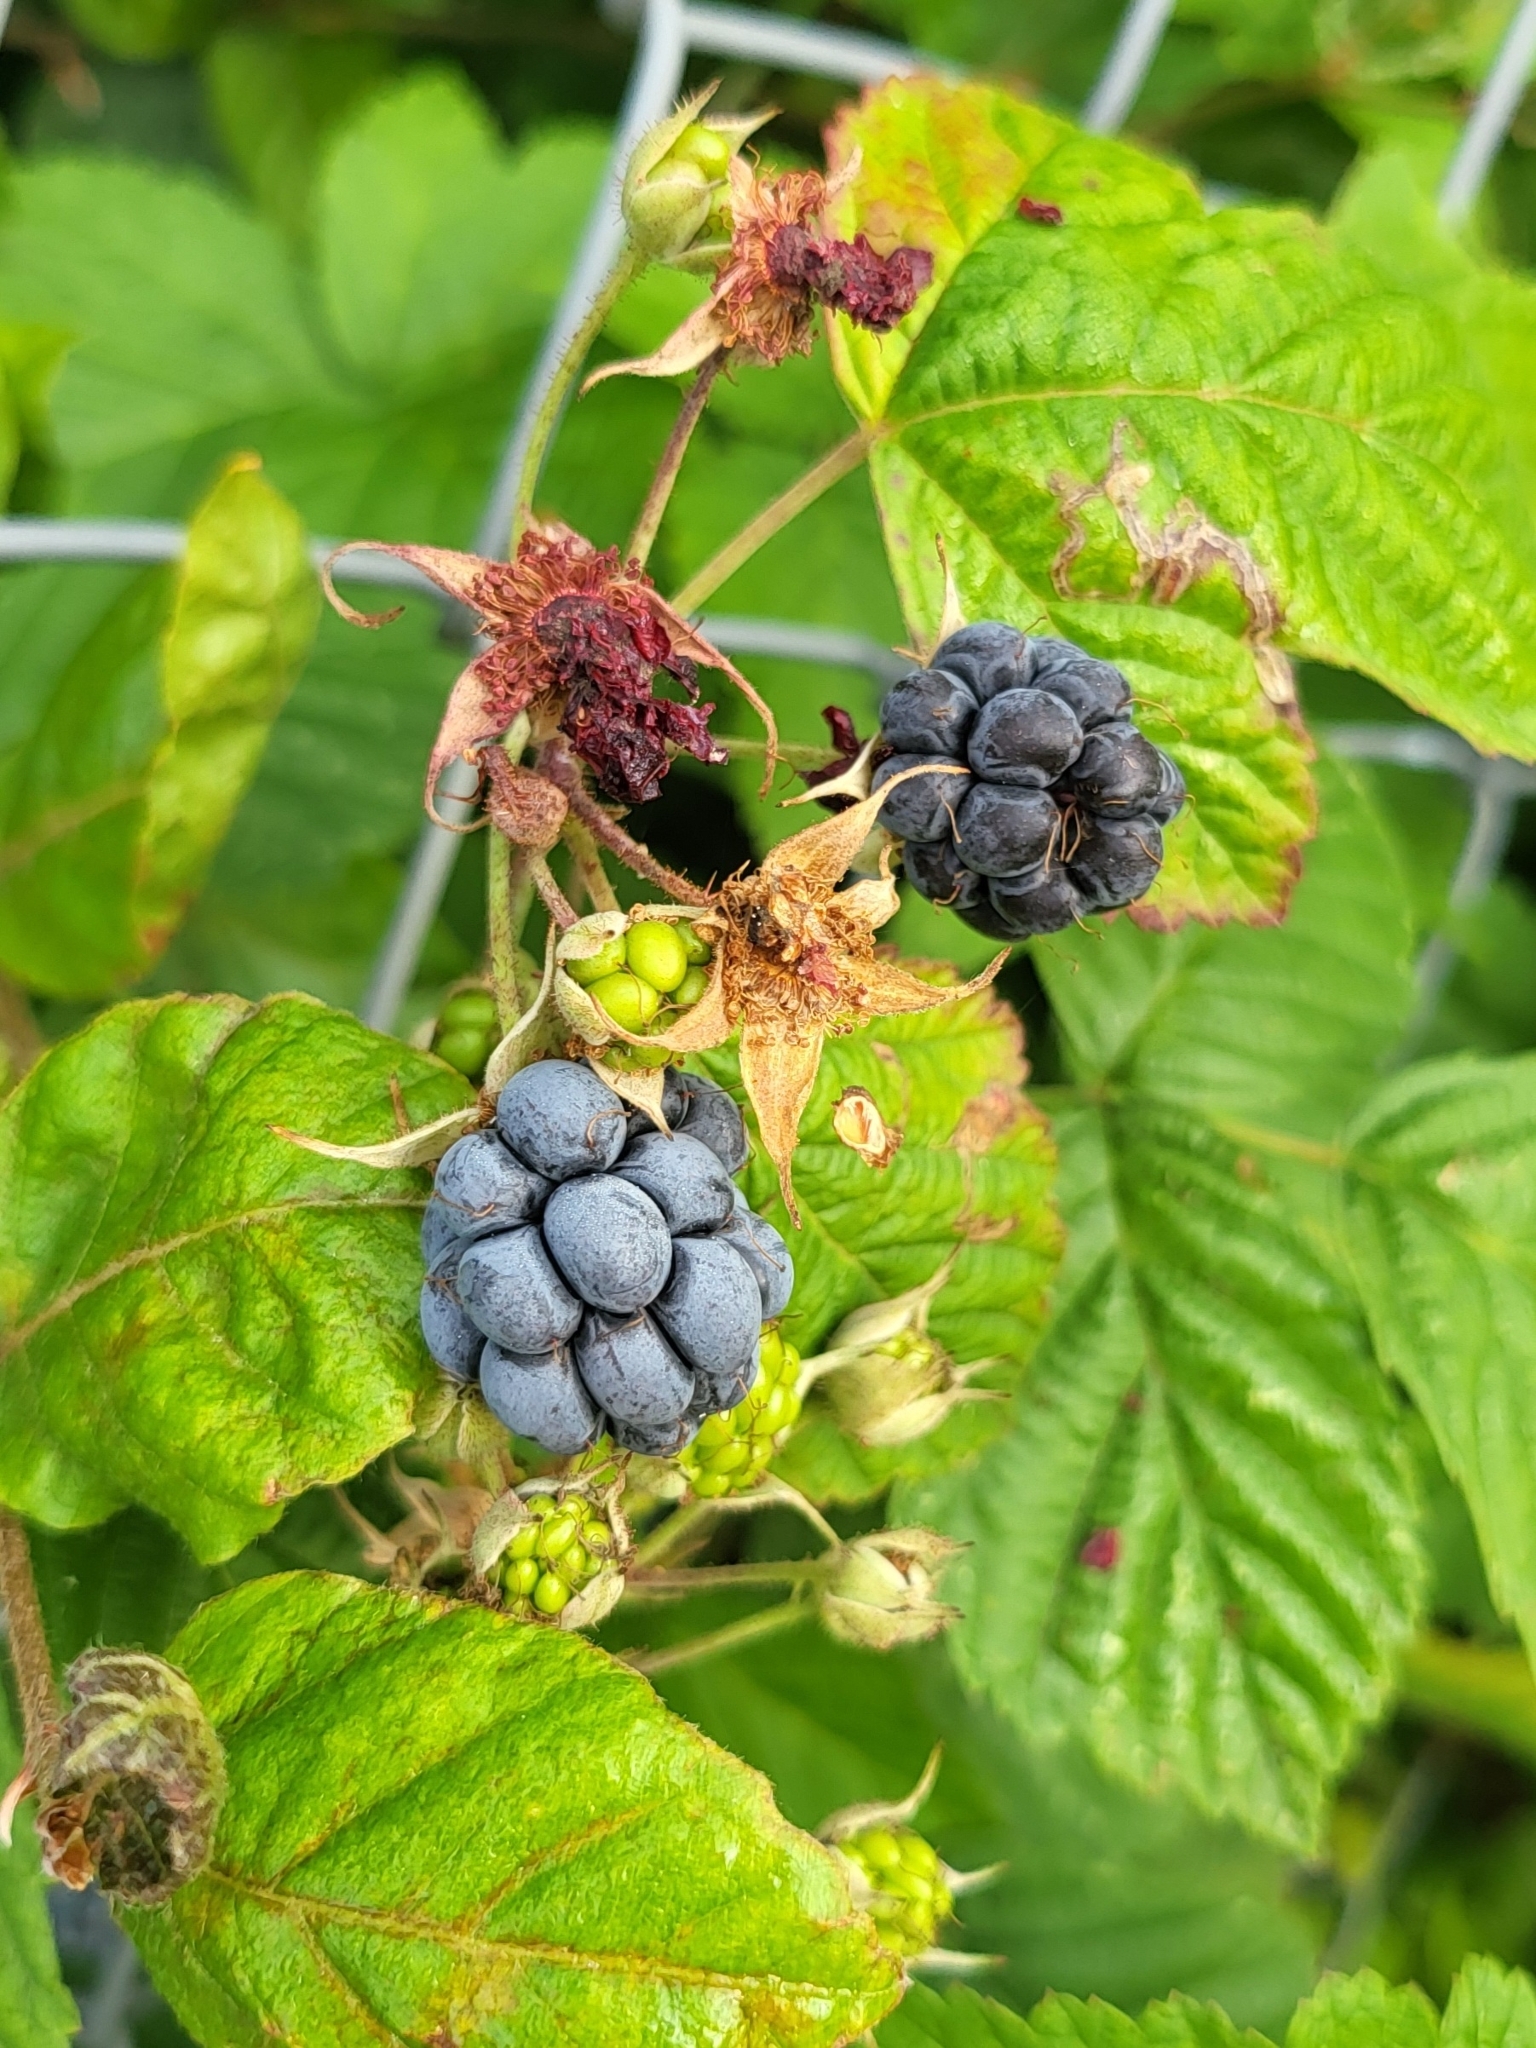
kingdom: Plantae
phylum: Tracheophyta
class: Magnoliopsida
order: Rosales
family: Rosaceae
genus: Rubus
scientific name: Rubus caesius
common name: Dewberry
